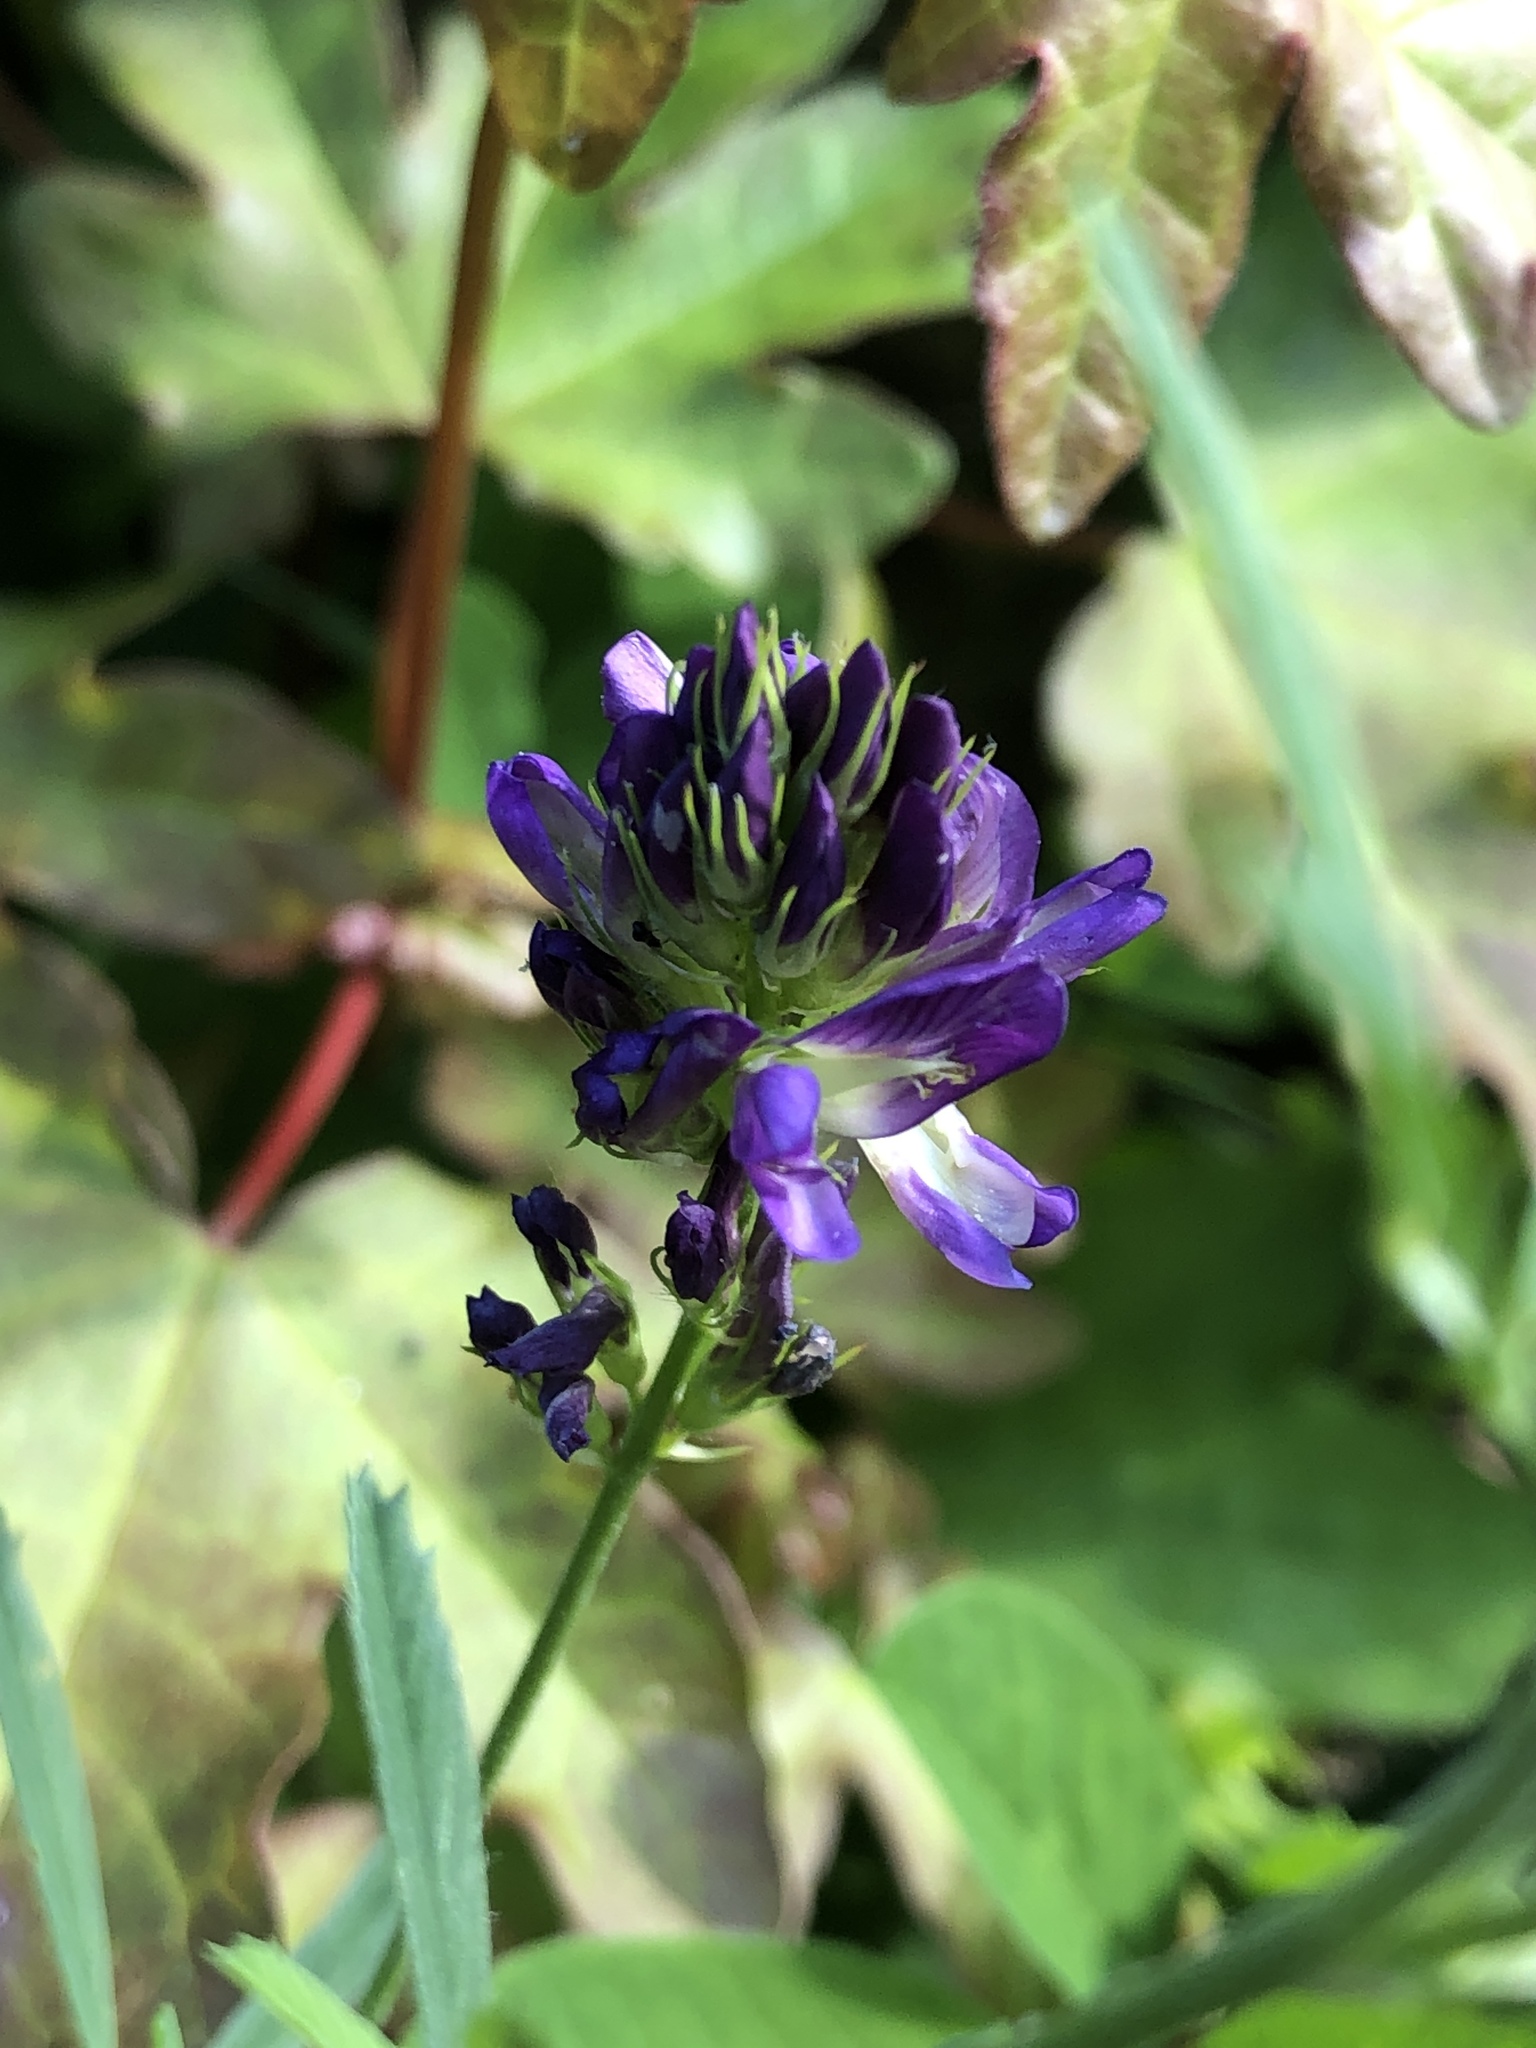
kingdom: Plantae
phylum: Tracheophyta
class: Magnoliopsida
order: Fabales
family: Fabaceae
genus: Medicago
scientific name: Medicago sativa
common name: Alfalfa
